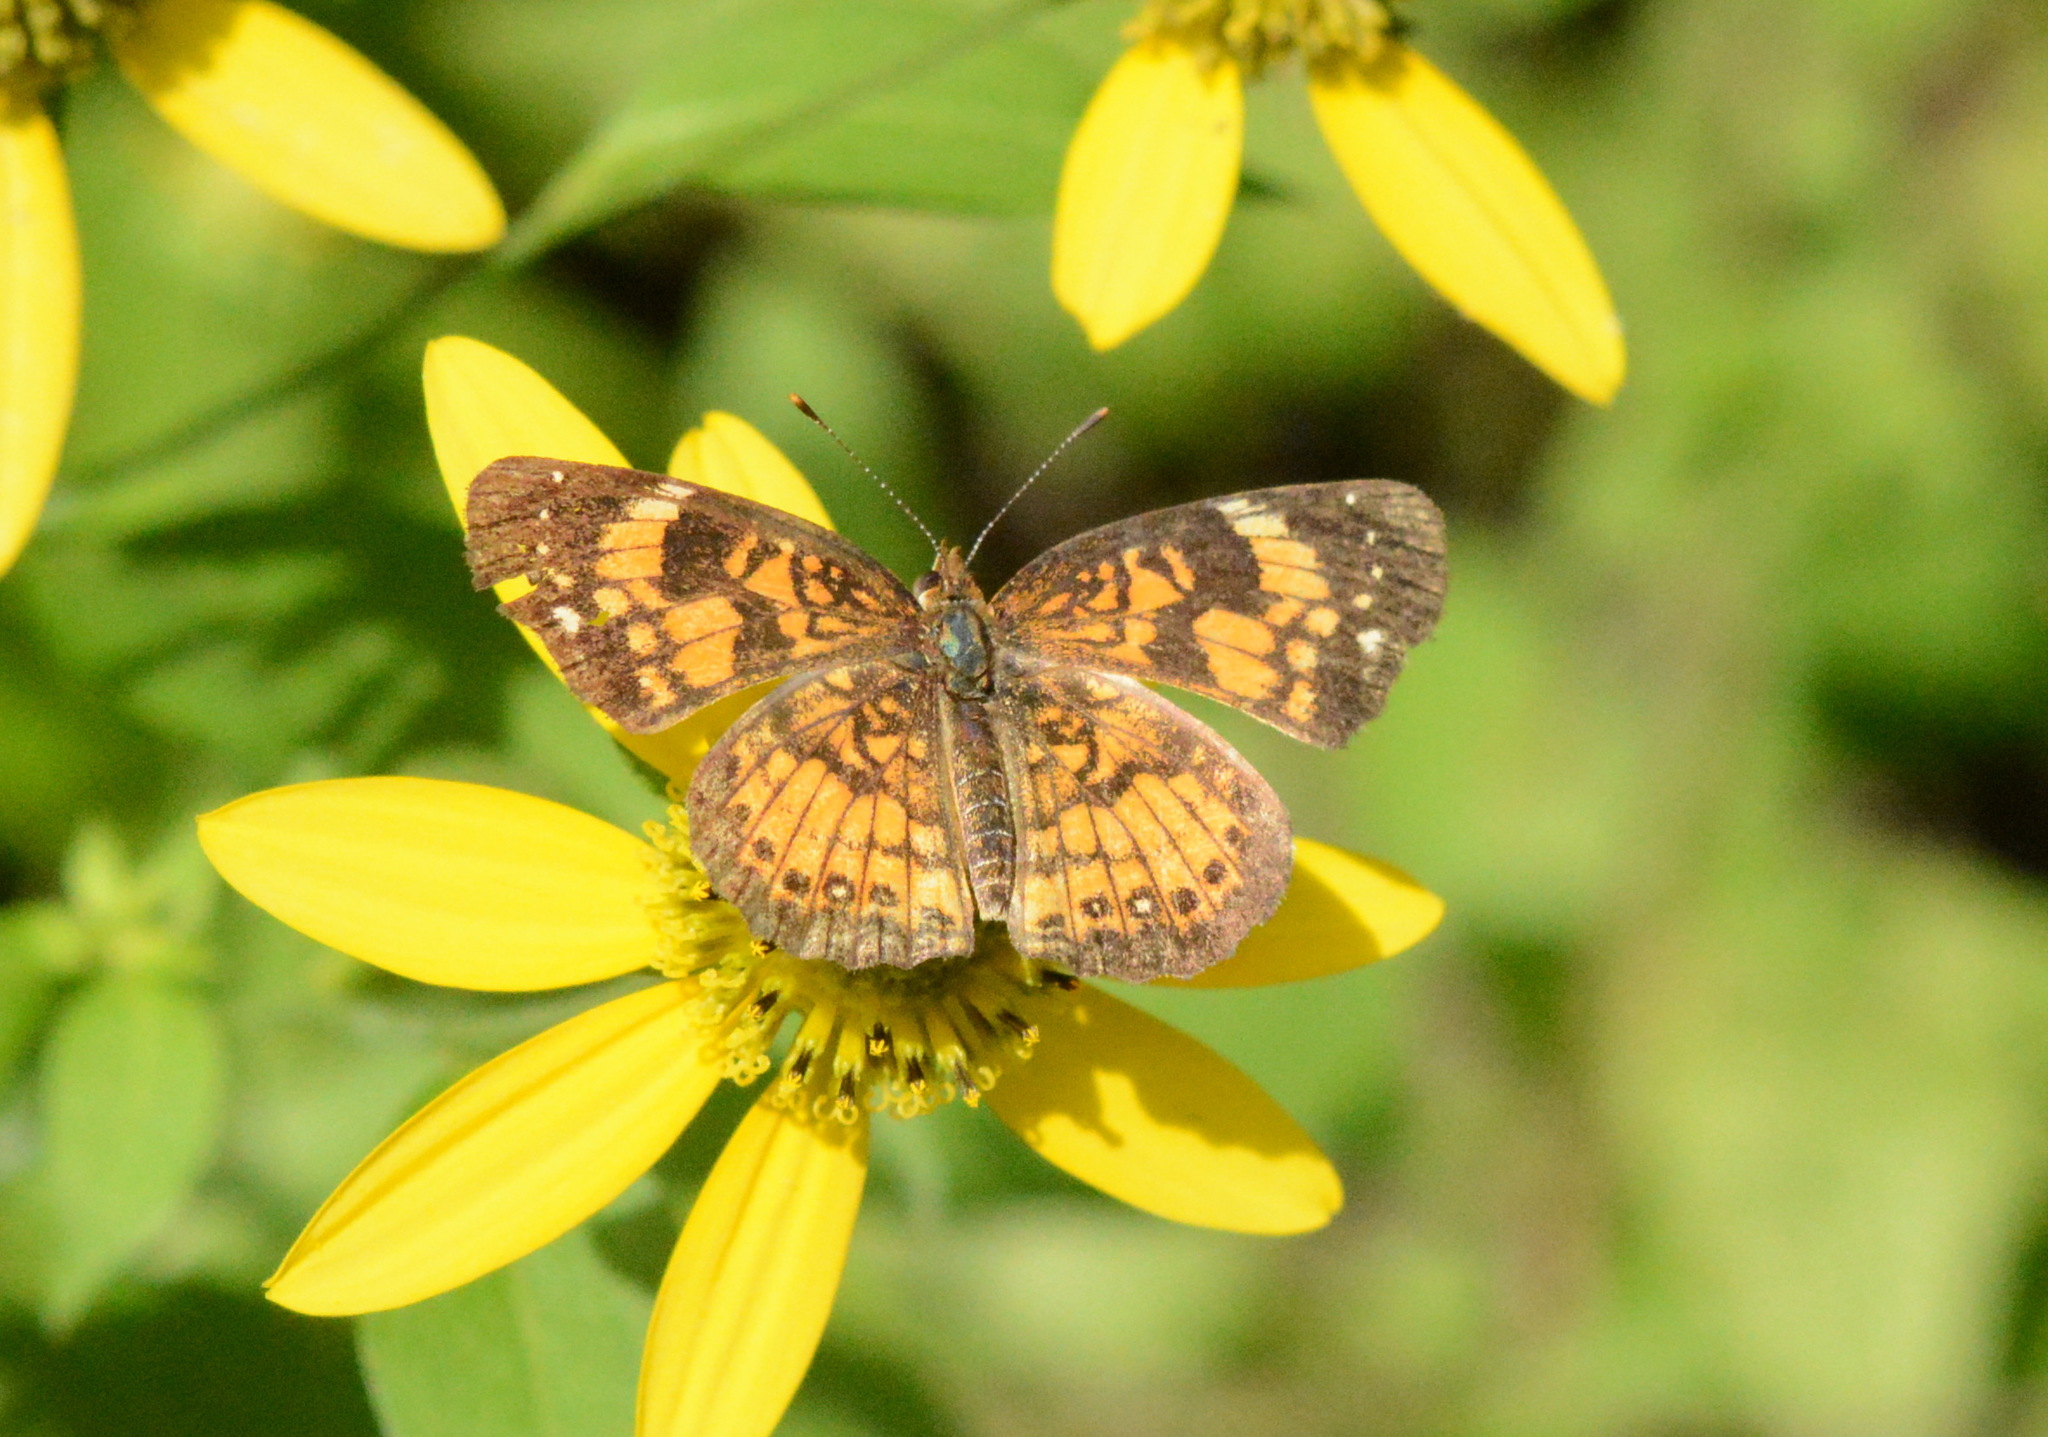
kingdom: Animalia
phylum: Arthropoda
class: Insecta
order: Lepidoptera
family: Nymphalidae
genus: Chlosyne
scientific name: Chlosyne nycteis
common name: Silvery checkerspot
